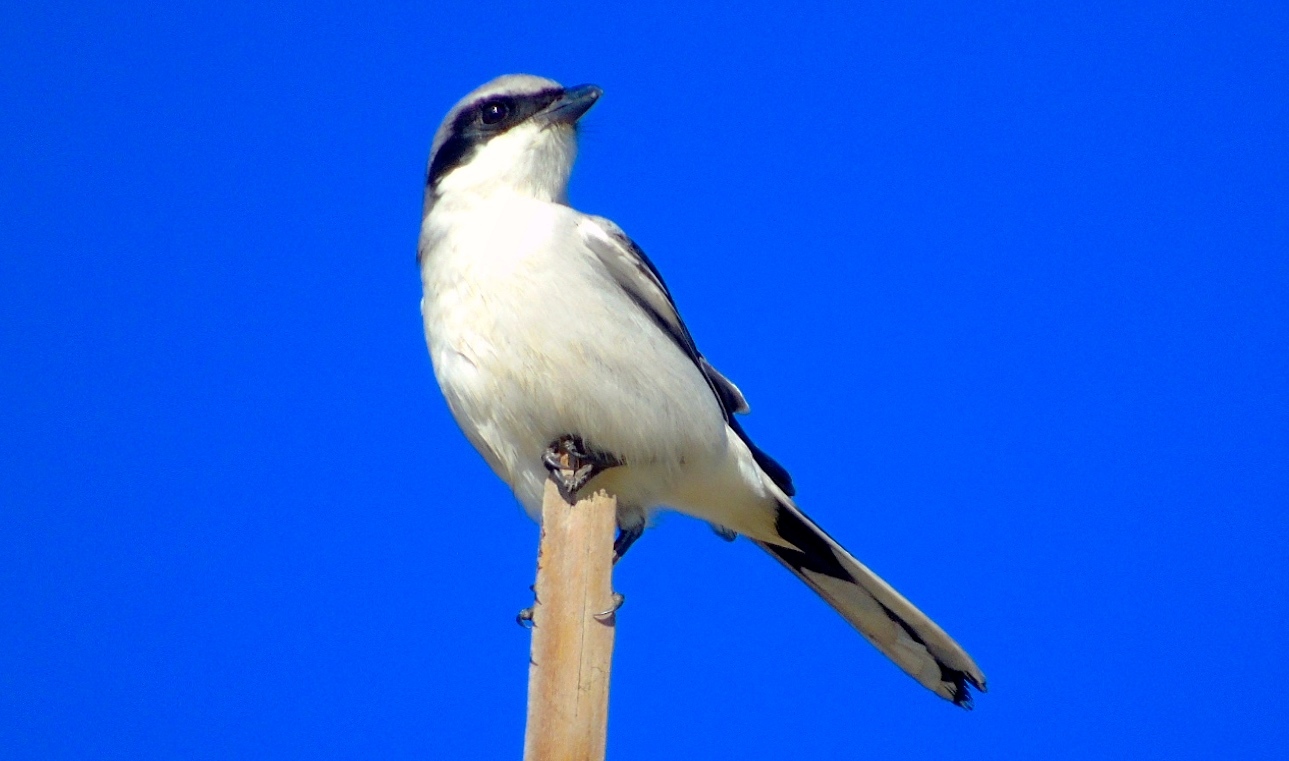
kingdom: Animalia
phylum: Chordata
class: Aves
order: Passeriformes
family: Laniidae
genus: Lanius
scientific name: Lanius ludovicianus
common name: Loggerhead shrike
